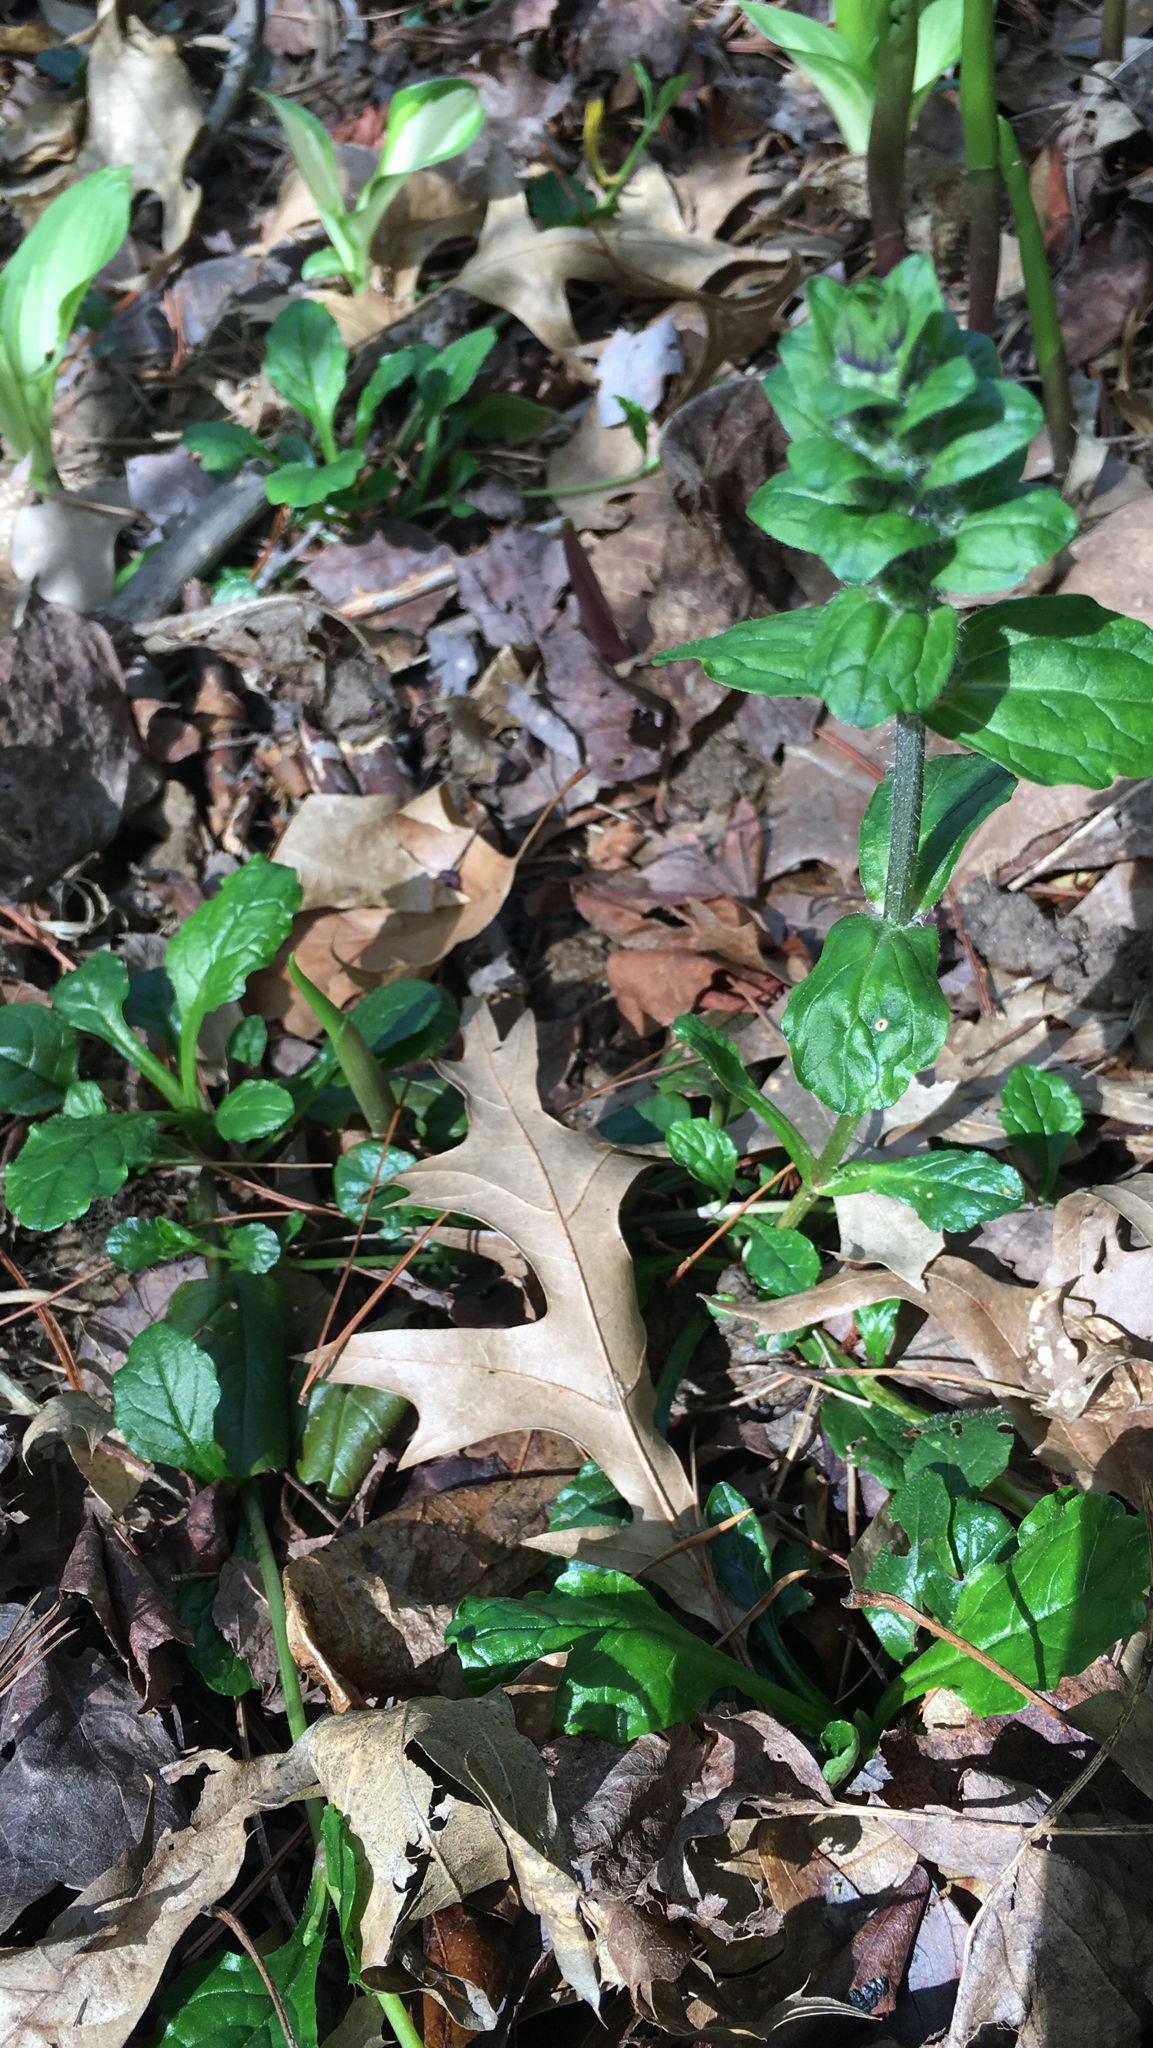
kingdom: Plantae
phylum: Tracheophyta
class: Magnoliopsida
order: Lamiales
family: Lamiaceae
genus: Ajuga
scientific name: Ajuga reptans
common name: Bugle
